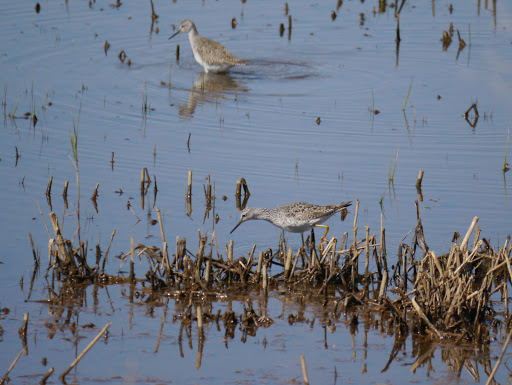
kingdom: Animalia
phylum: Chordata
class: Aves
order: Charadriiformes
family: Scolopacidae
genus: Tringa
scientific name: Tringa flavipes
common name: Lesser yellowlegs
